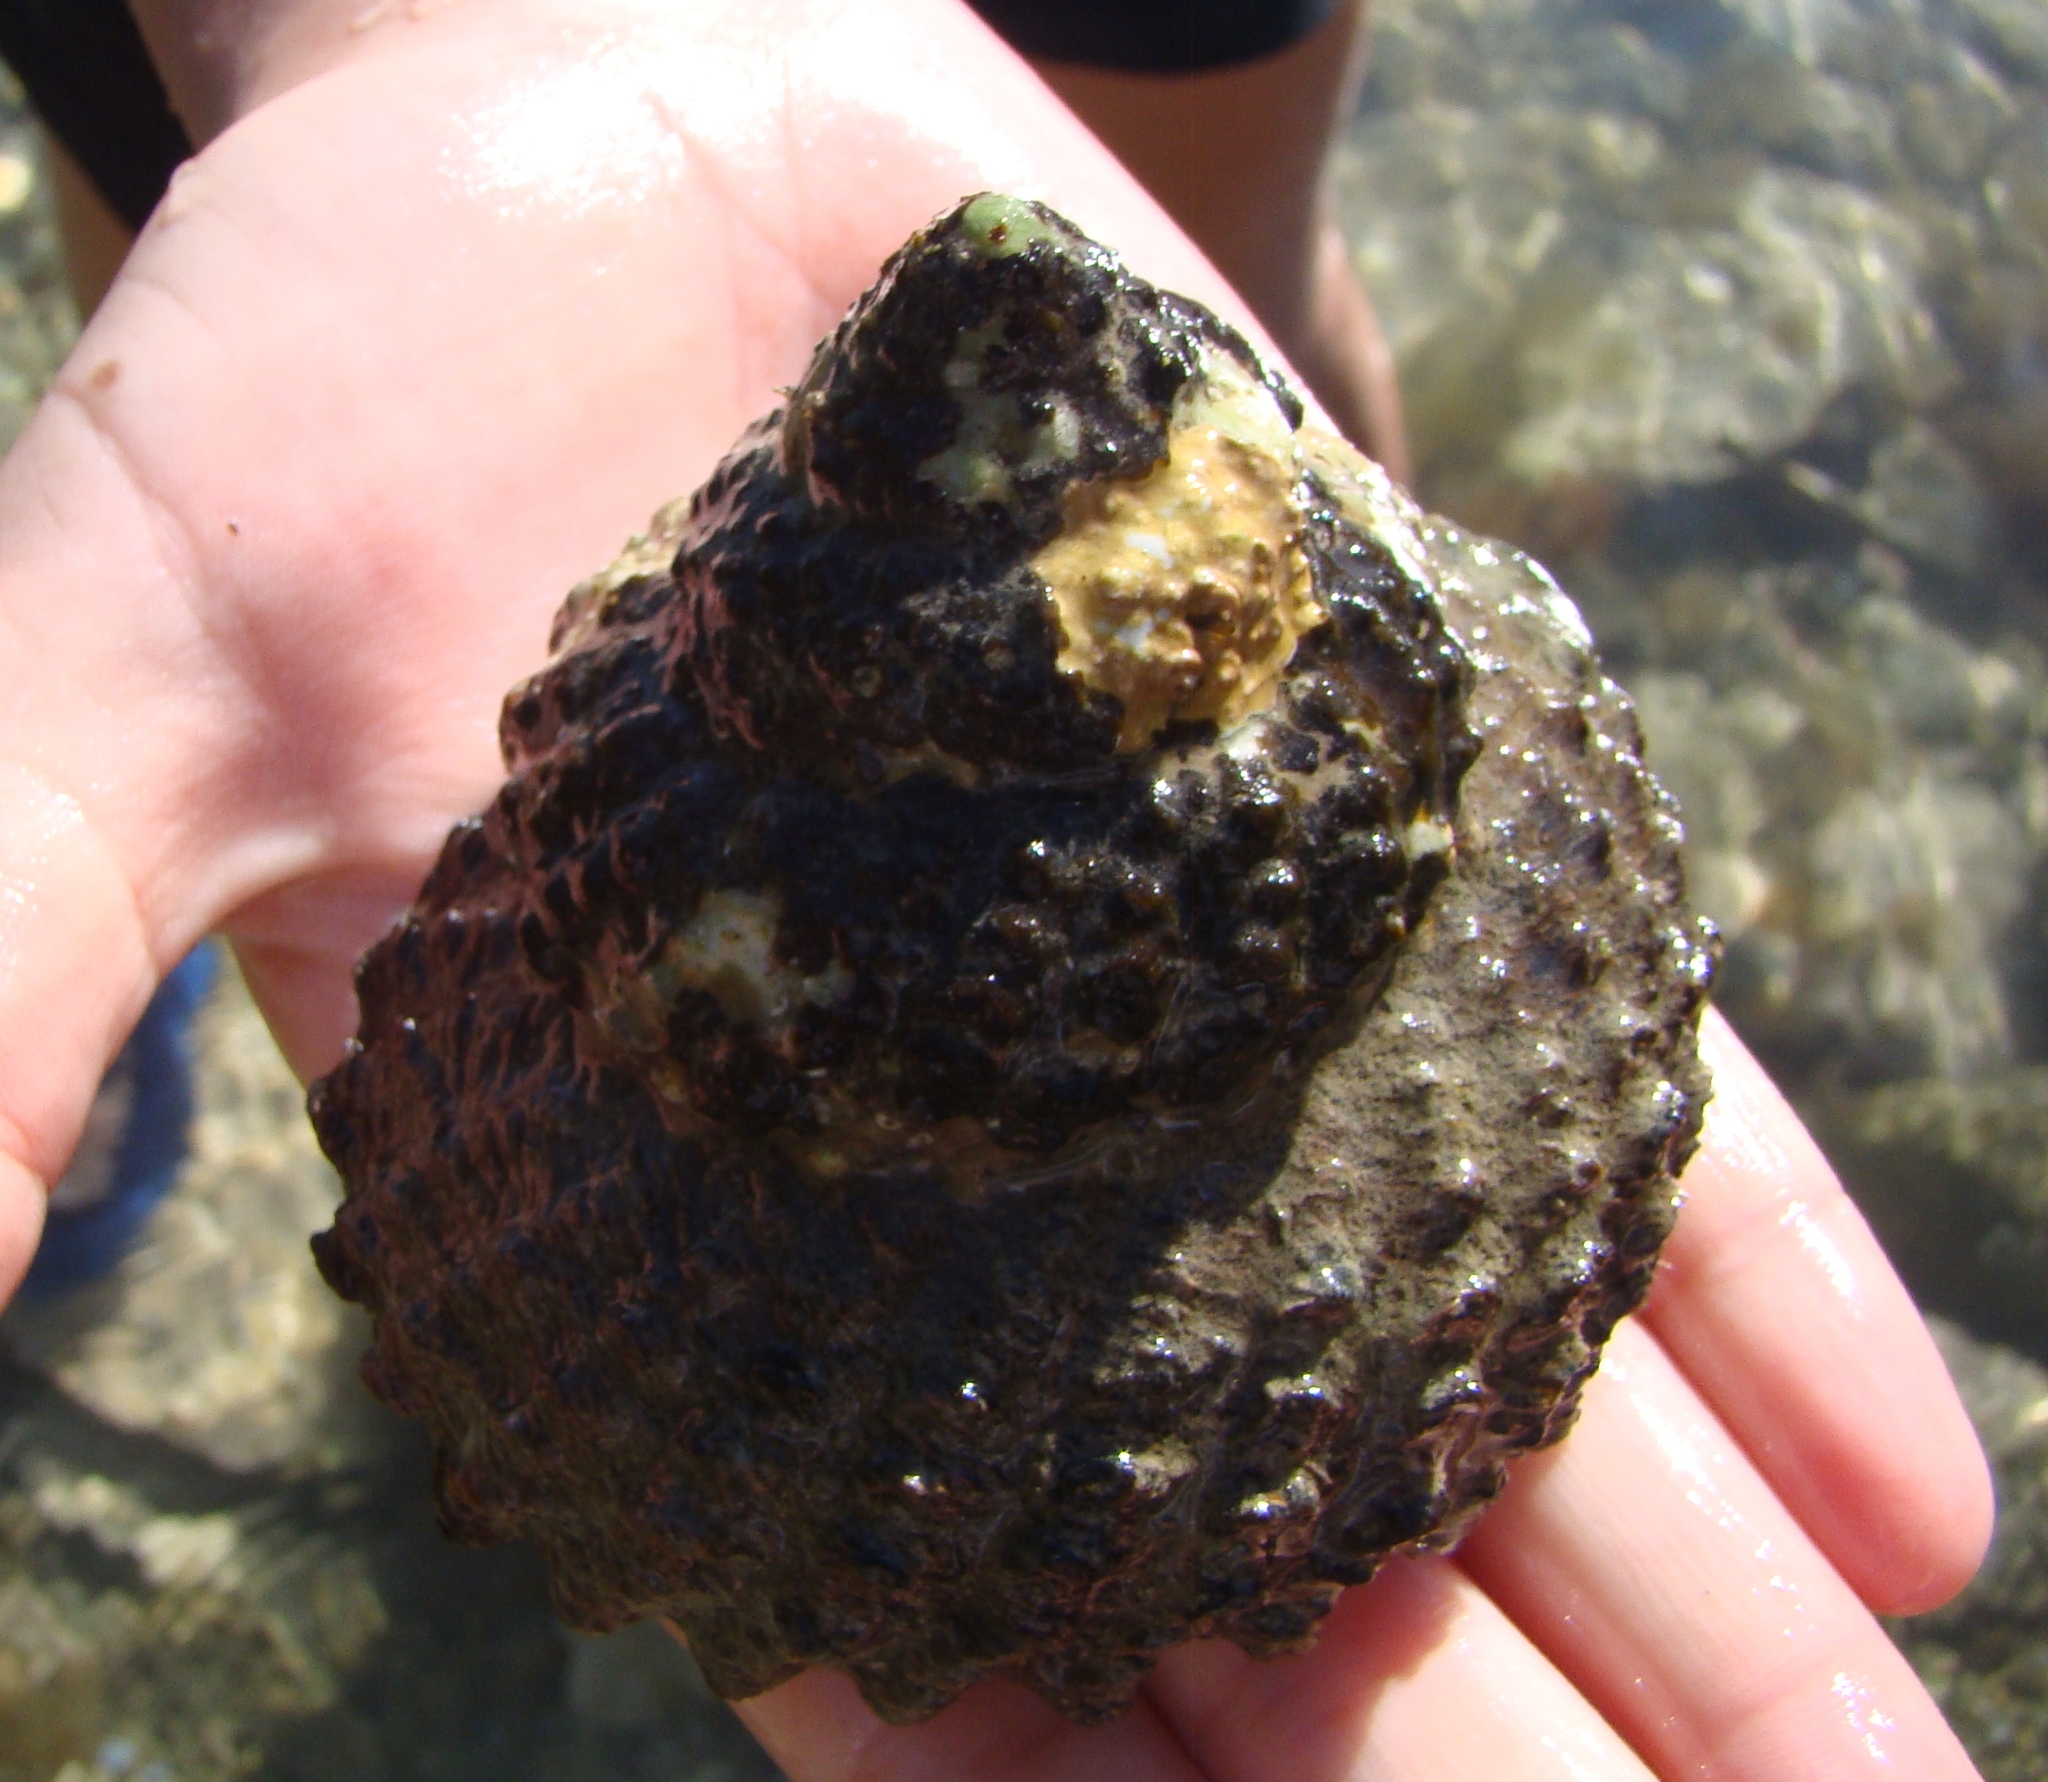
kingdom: Animalia
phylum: Mollusca
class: Gastropoda
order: Trochida
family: Turbinidae
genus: Cookia
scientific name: Cookia sulcata
